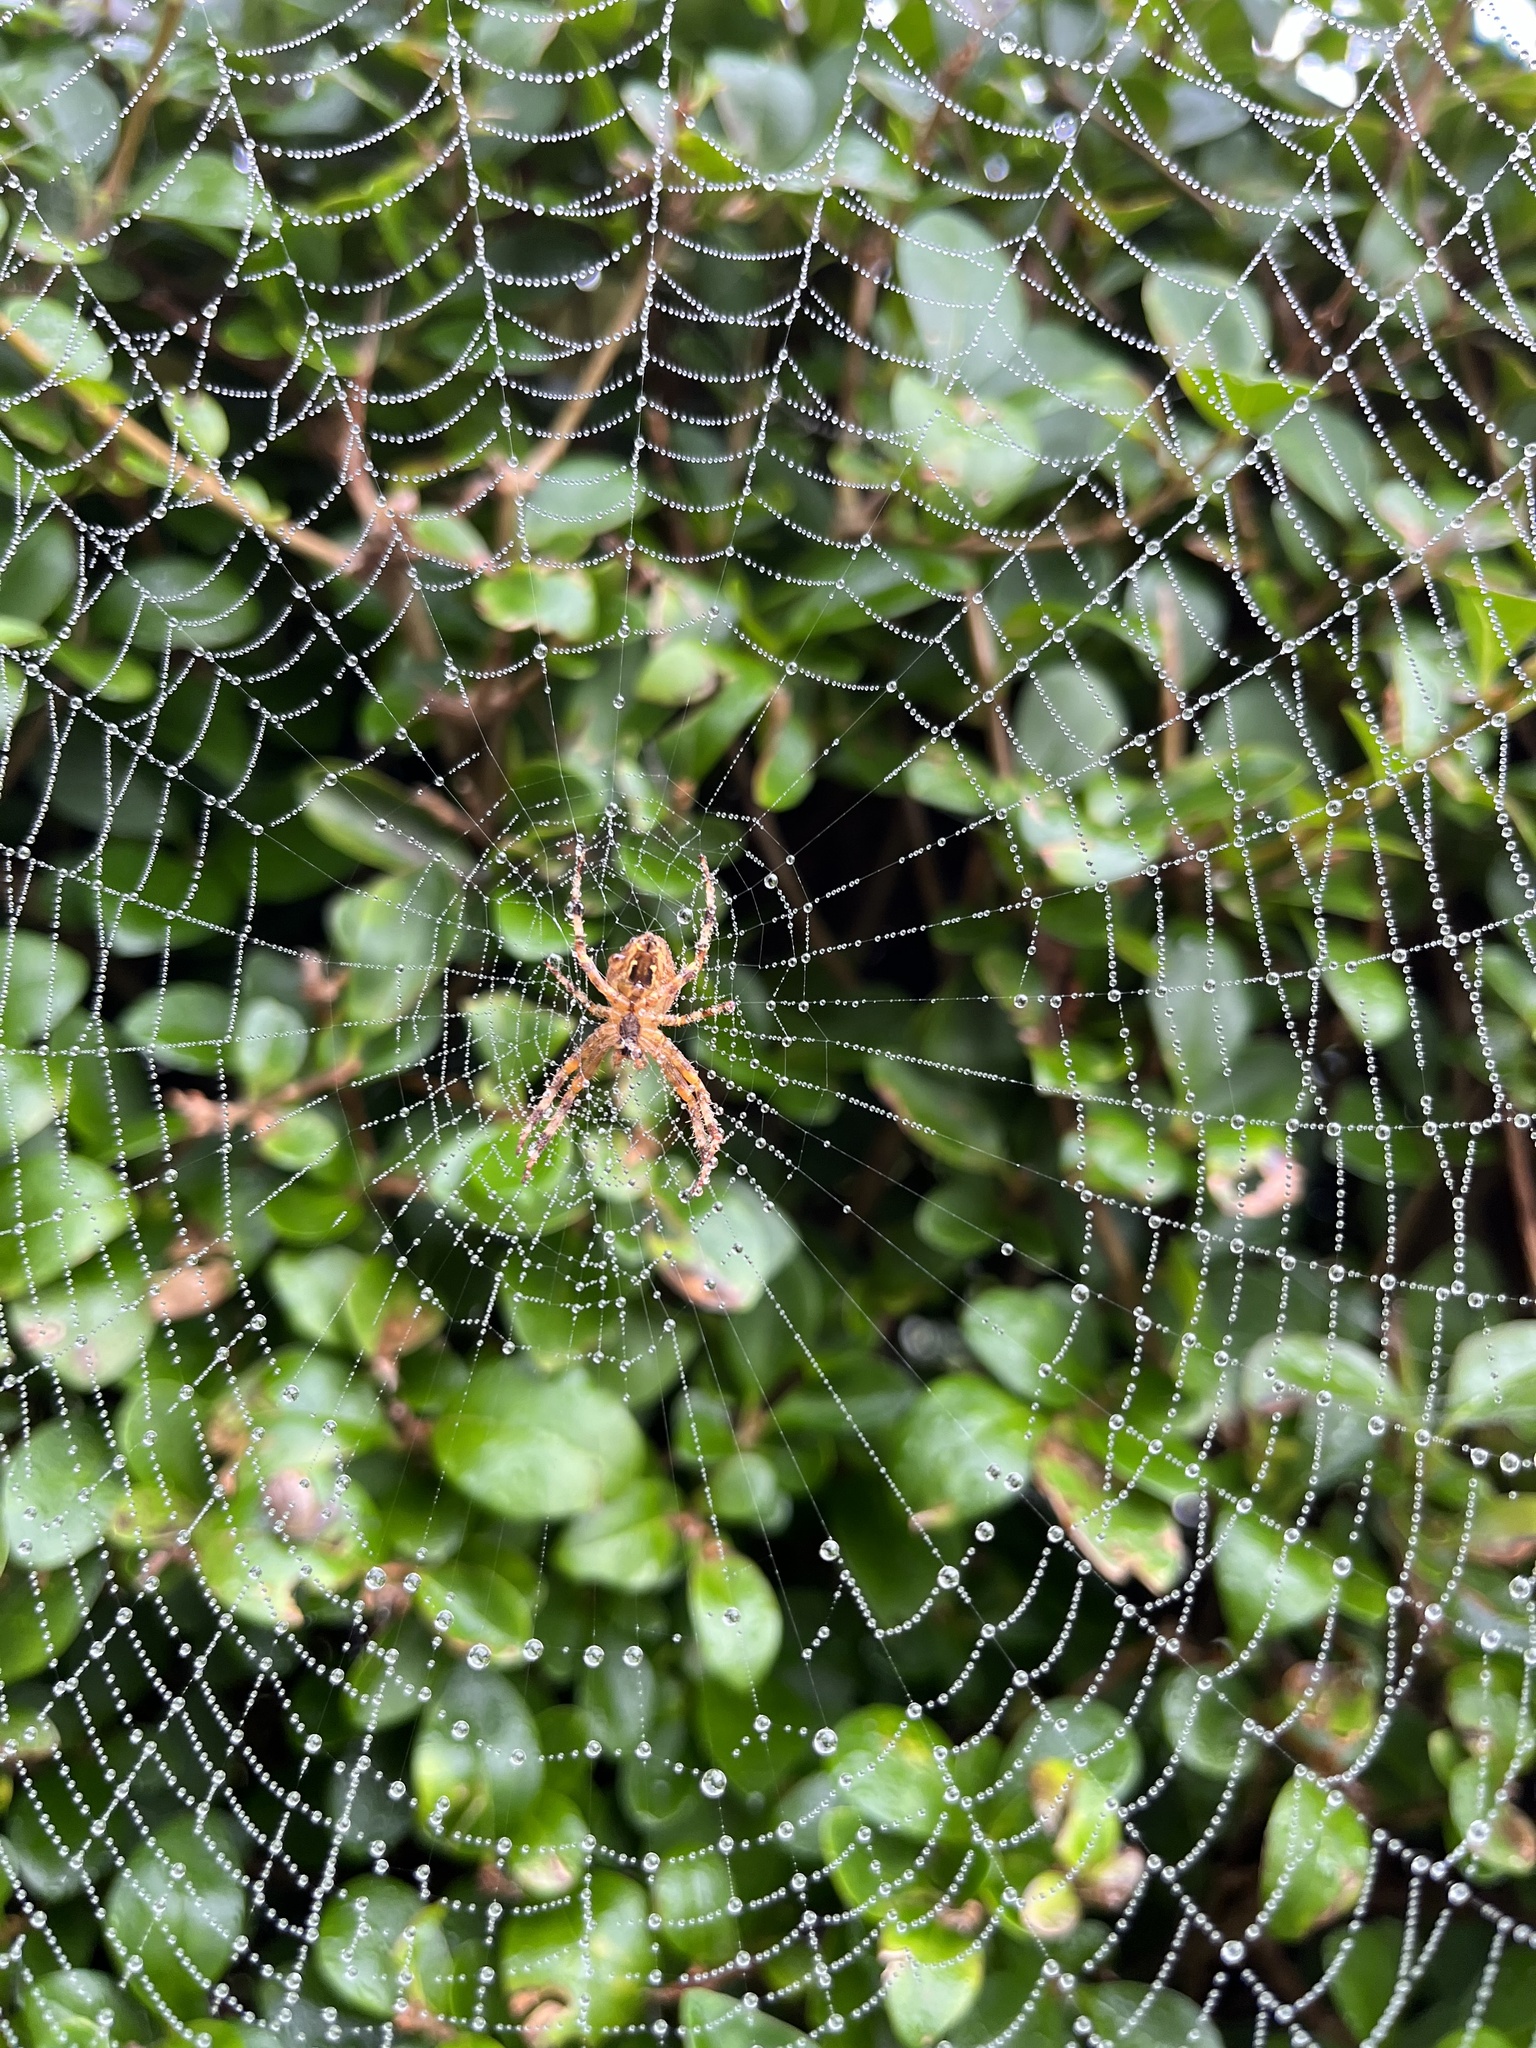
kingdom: Animalia
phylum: Arthropoda
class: Arachnida
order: Araneae
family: Araneidae
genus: Araneus
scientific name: Araneus diadematus
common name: Cross orbweaver
